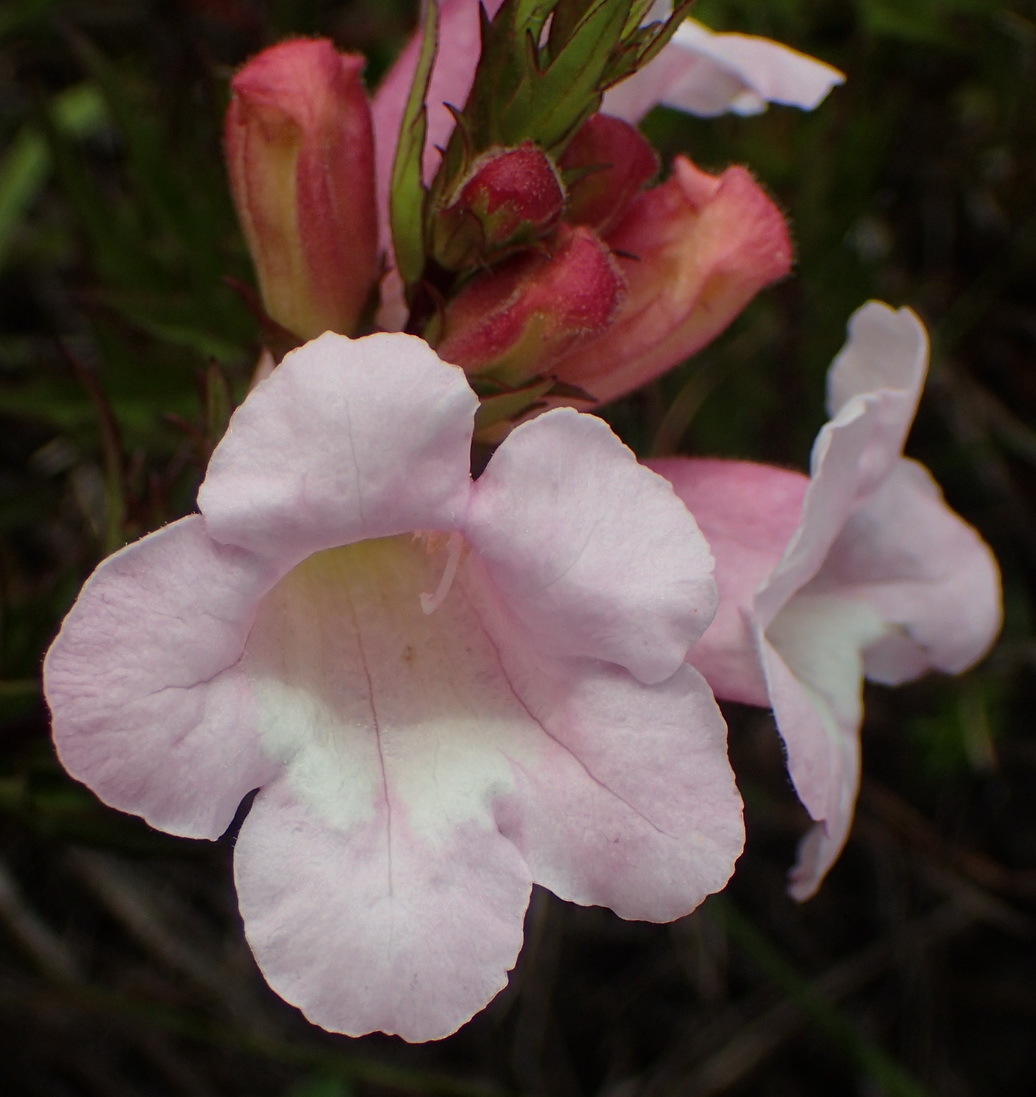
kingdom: Plantae
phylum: Tracheophyta
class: Magnoliopsida
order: Lamiales
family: Orobanchaceae
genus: Graderia
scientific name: Graderia scabra
